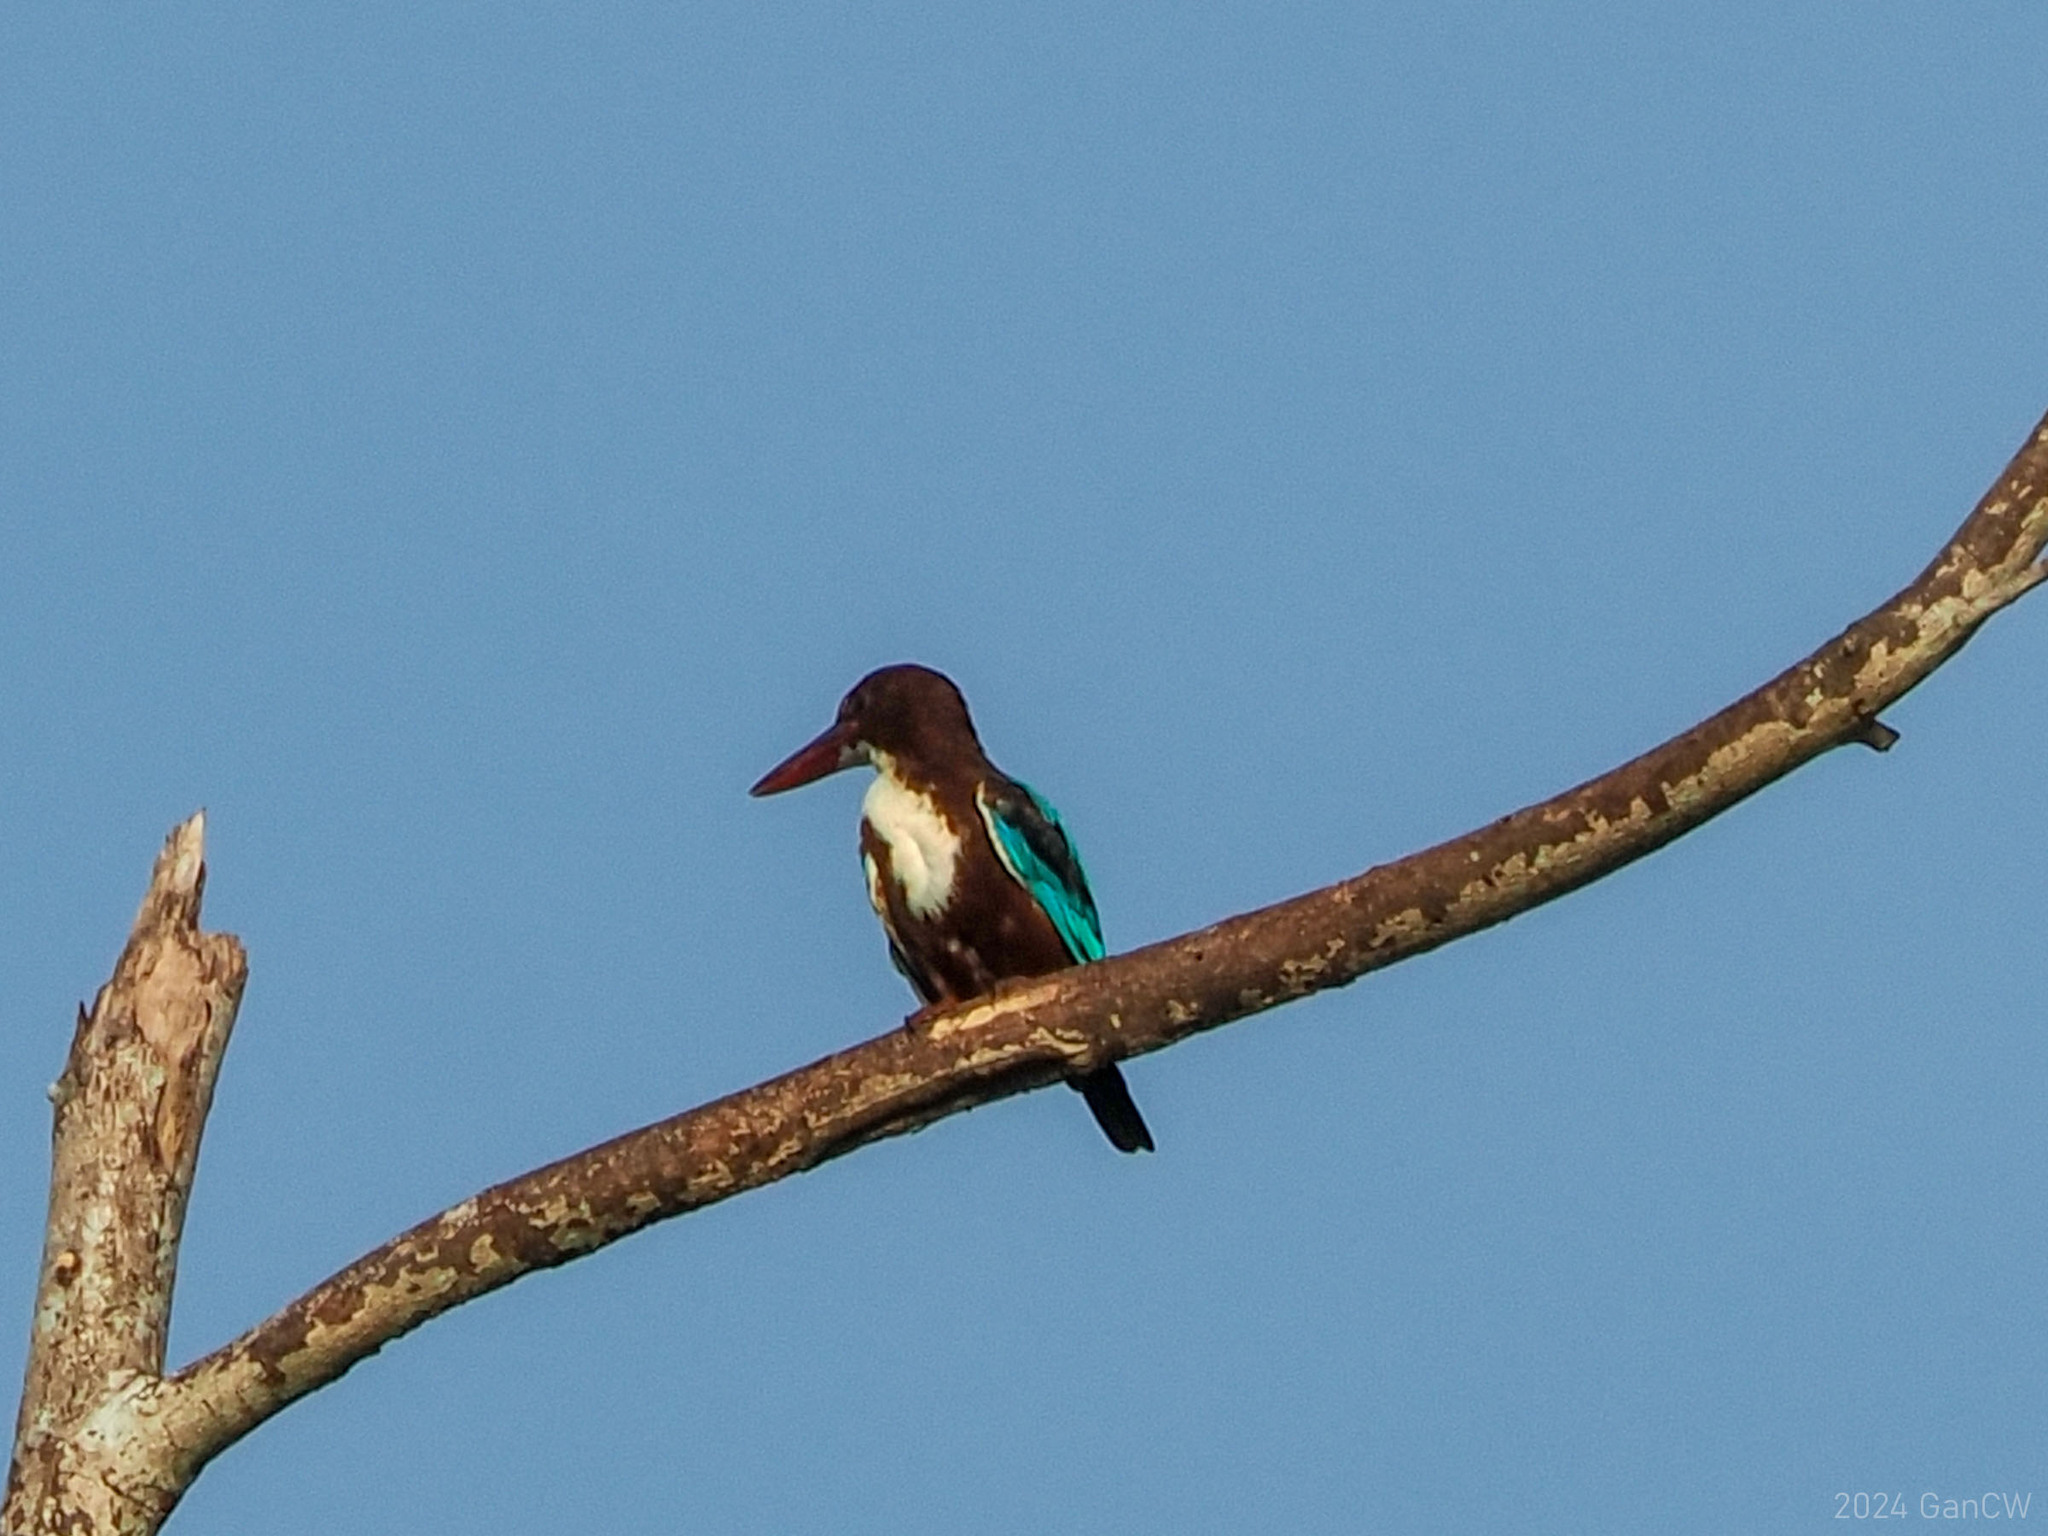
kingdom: Animalia
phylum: Chordata
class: Aves
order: Coraciiformes
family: Alcedinidae
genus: Halcyon
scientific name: Halcyon smyrnensis
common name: White-throated kingfisher
